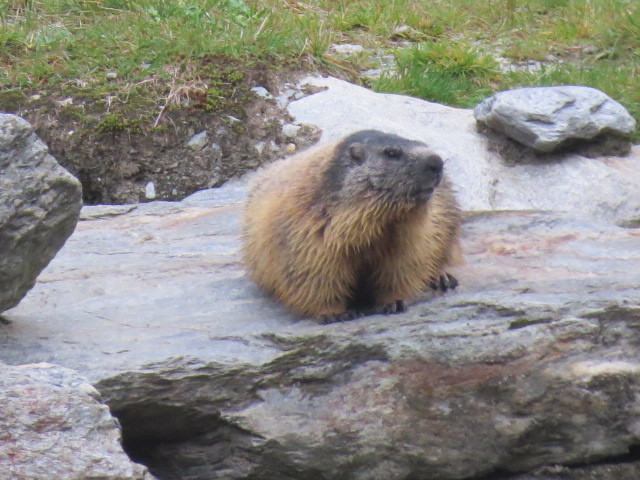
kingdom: Animalia
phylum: Chordata
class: Mammalia
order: Rodentia
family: Sciuridae
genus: Marmota
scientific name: Marmota marmota
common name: Alpine marmot
